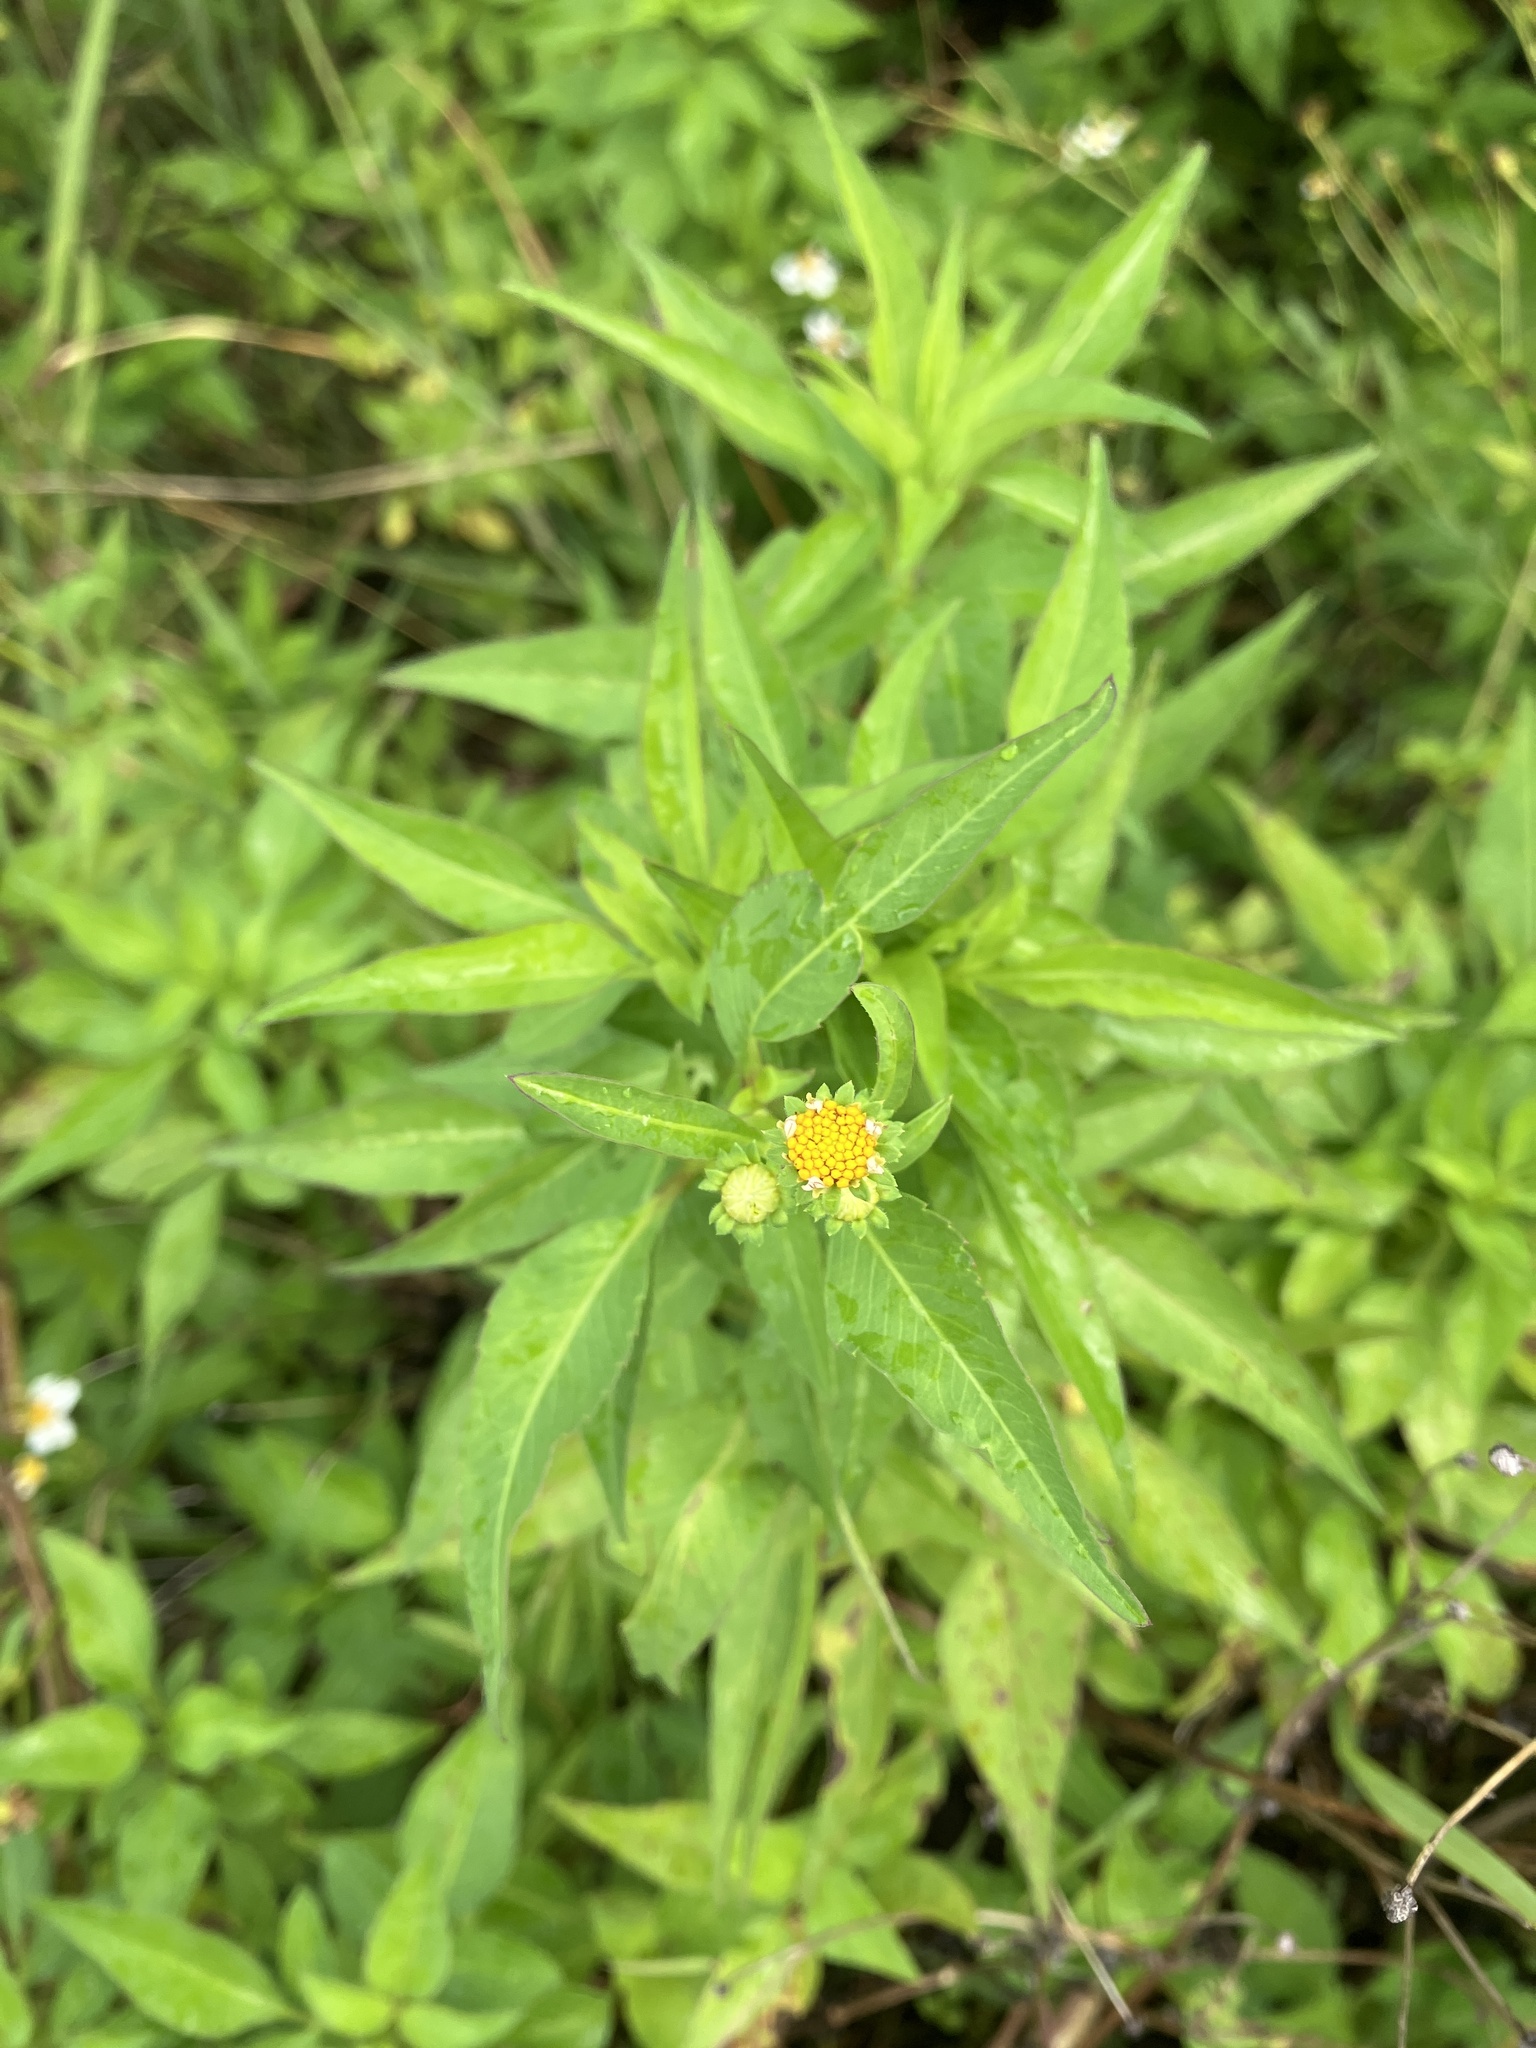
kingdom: Plantae
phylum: Tracheophyta
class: Magnoliopsida
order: Asterales
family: Asteraceae
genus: Bidens
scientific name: Bidens pilosa
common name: Black-jack
